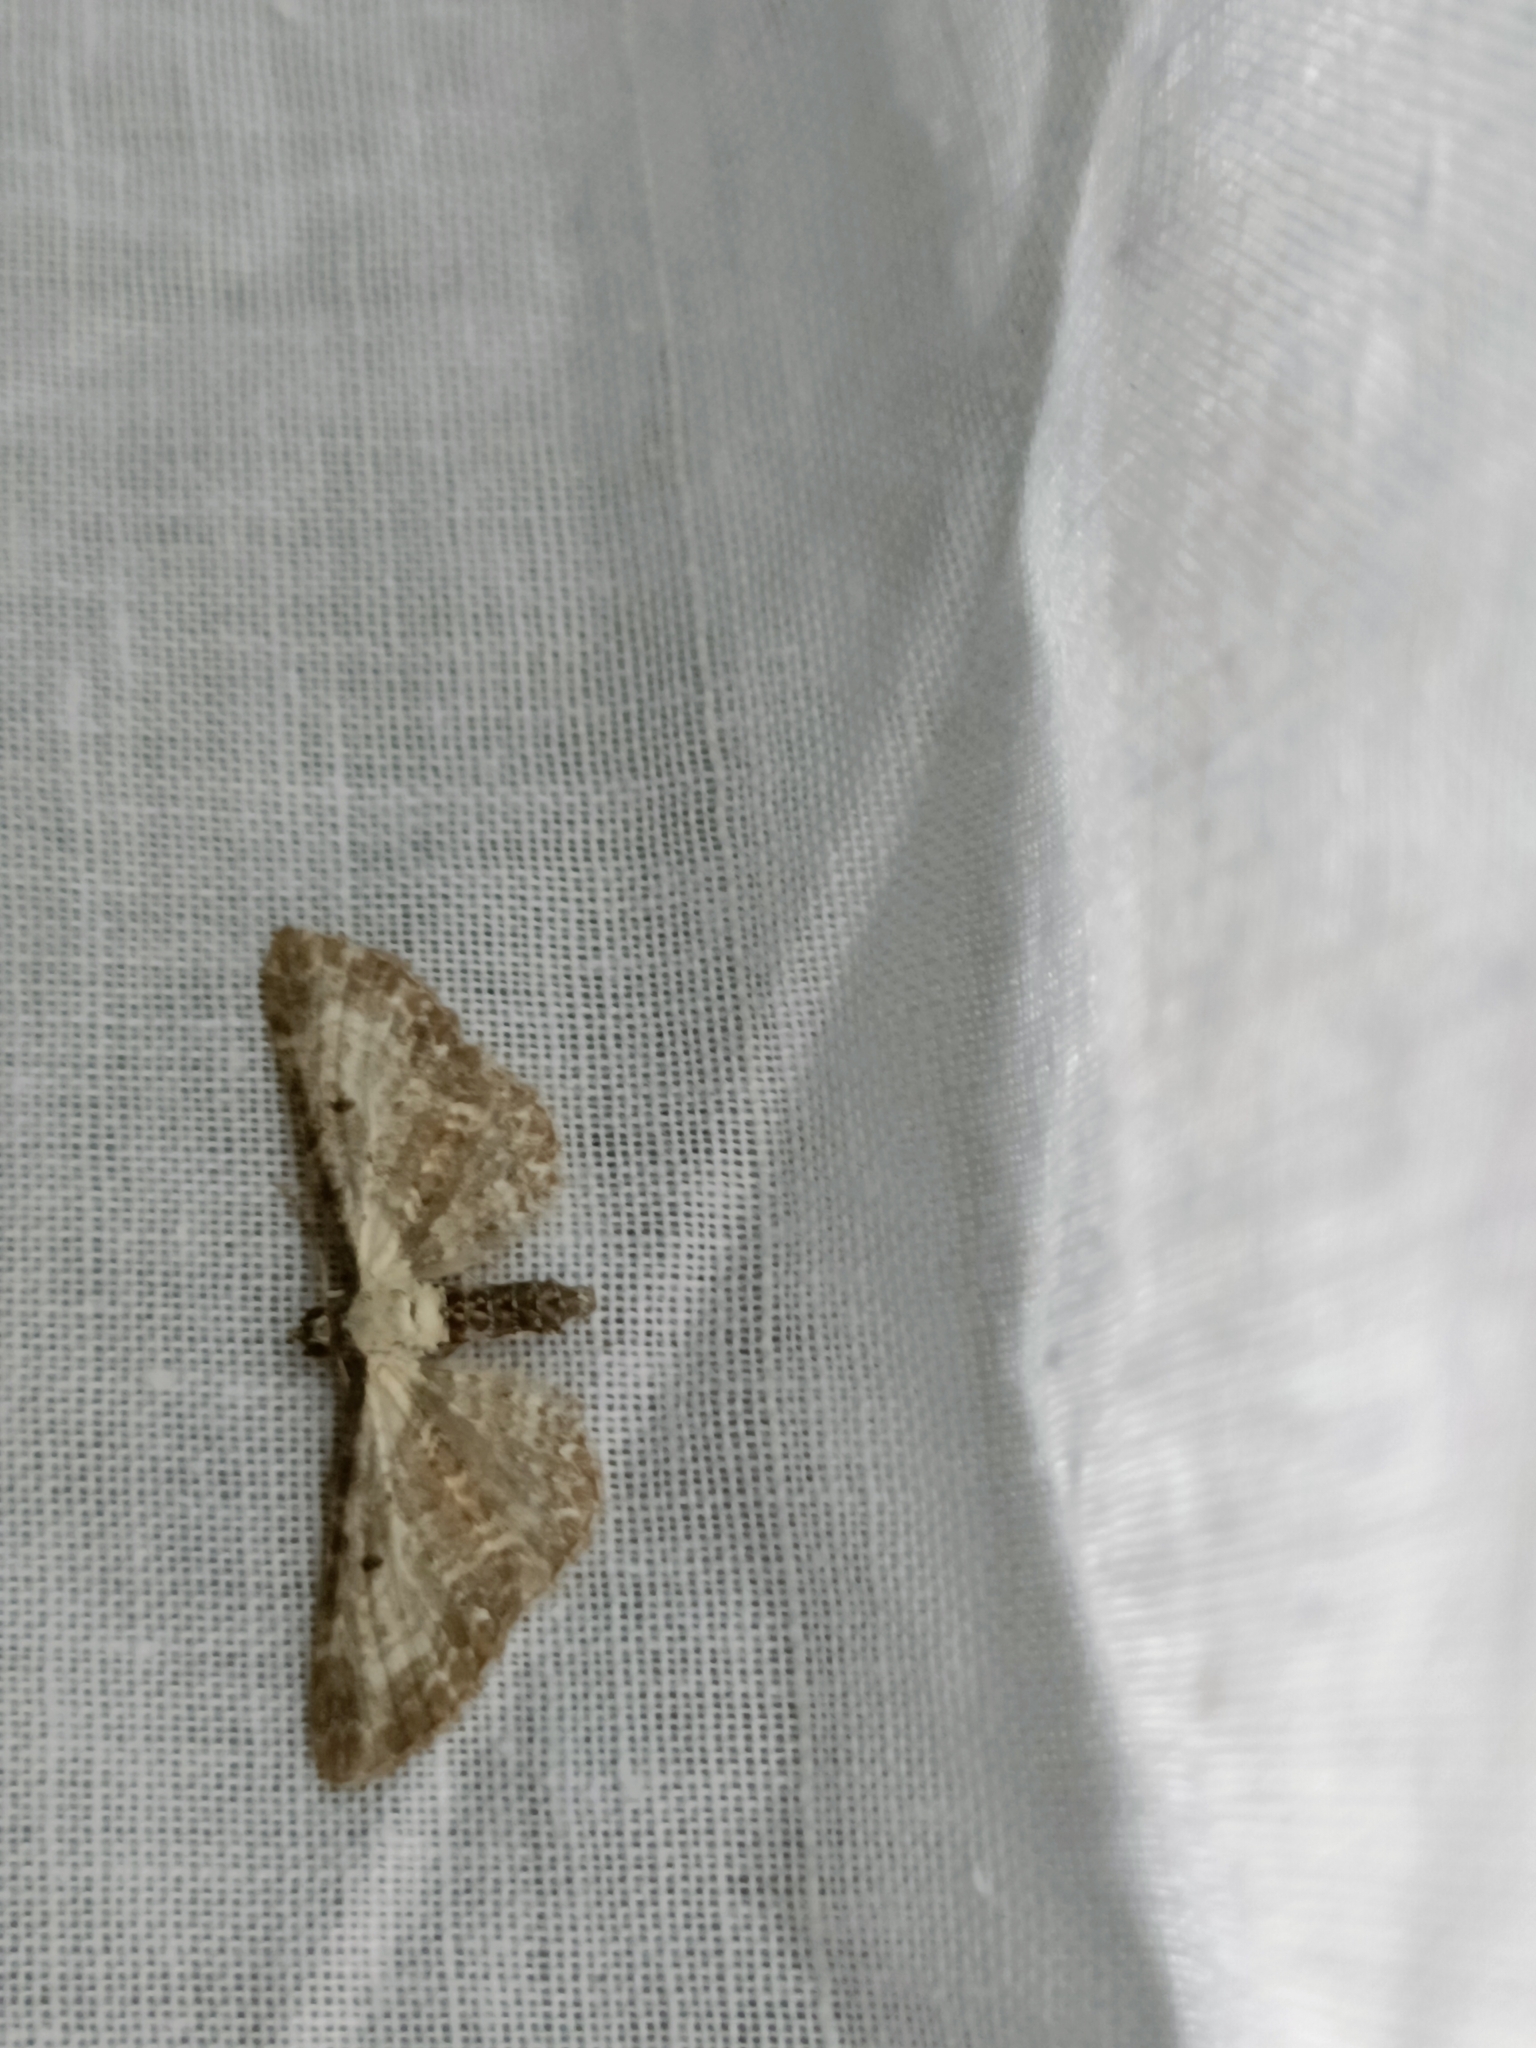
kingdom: Animalia
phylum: Arthropoda
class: Insecta
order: Lepidoptera
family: Geometridae
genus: Eupithecia
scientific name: Eupithecia succenturiata
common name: Bordered pug
